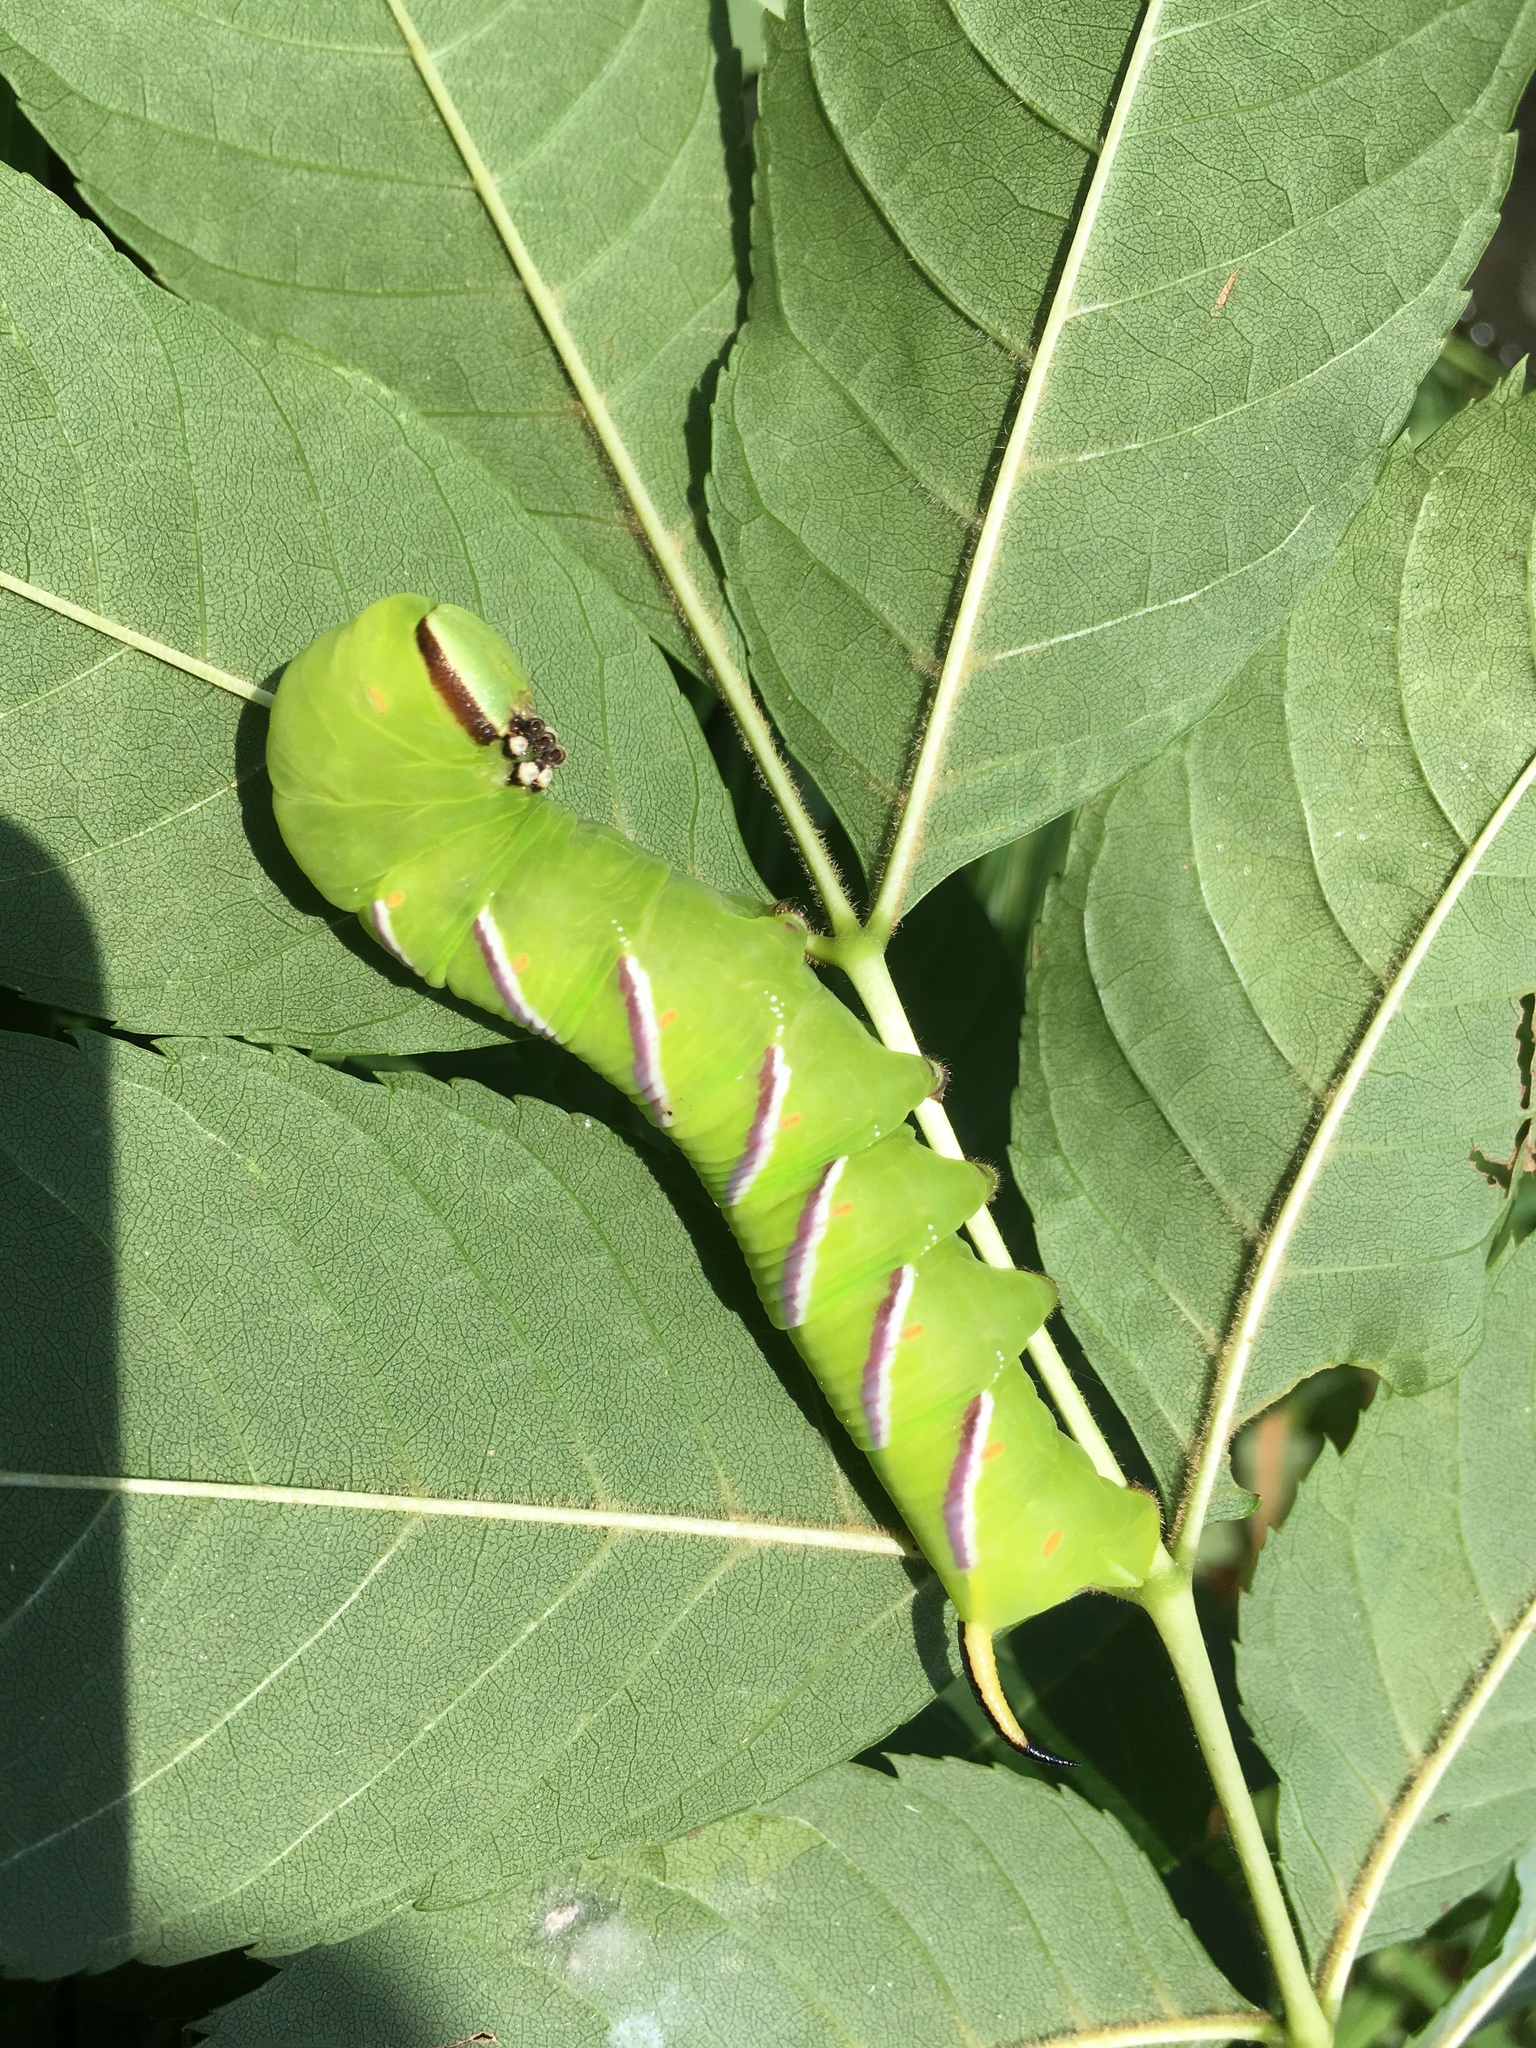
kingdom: Animalia
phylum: Arthropoda
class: Insecta
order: Lepidoptera
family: Sphingidae
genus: Sphinx
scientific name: Sphinx ligustri
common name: Privet hawk-moth
